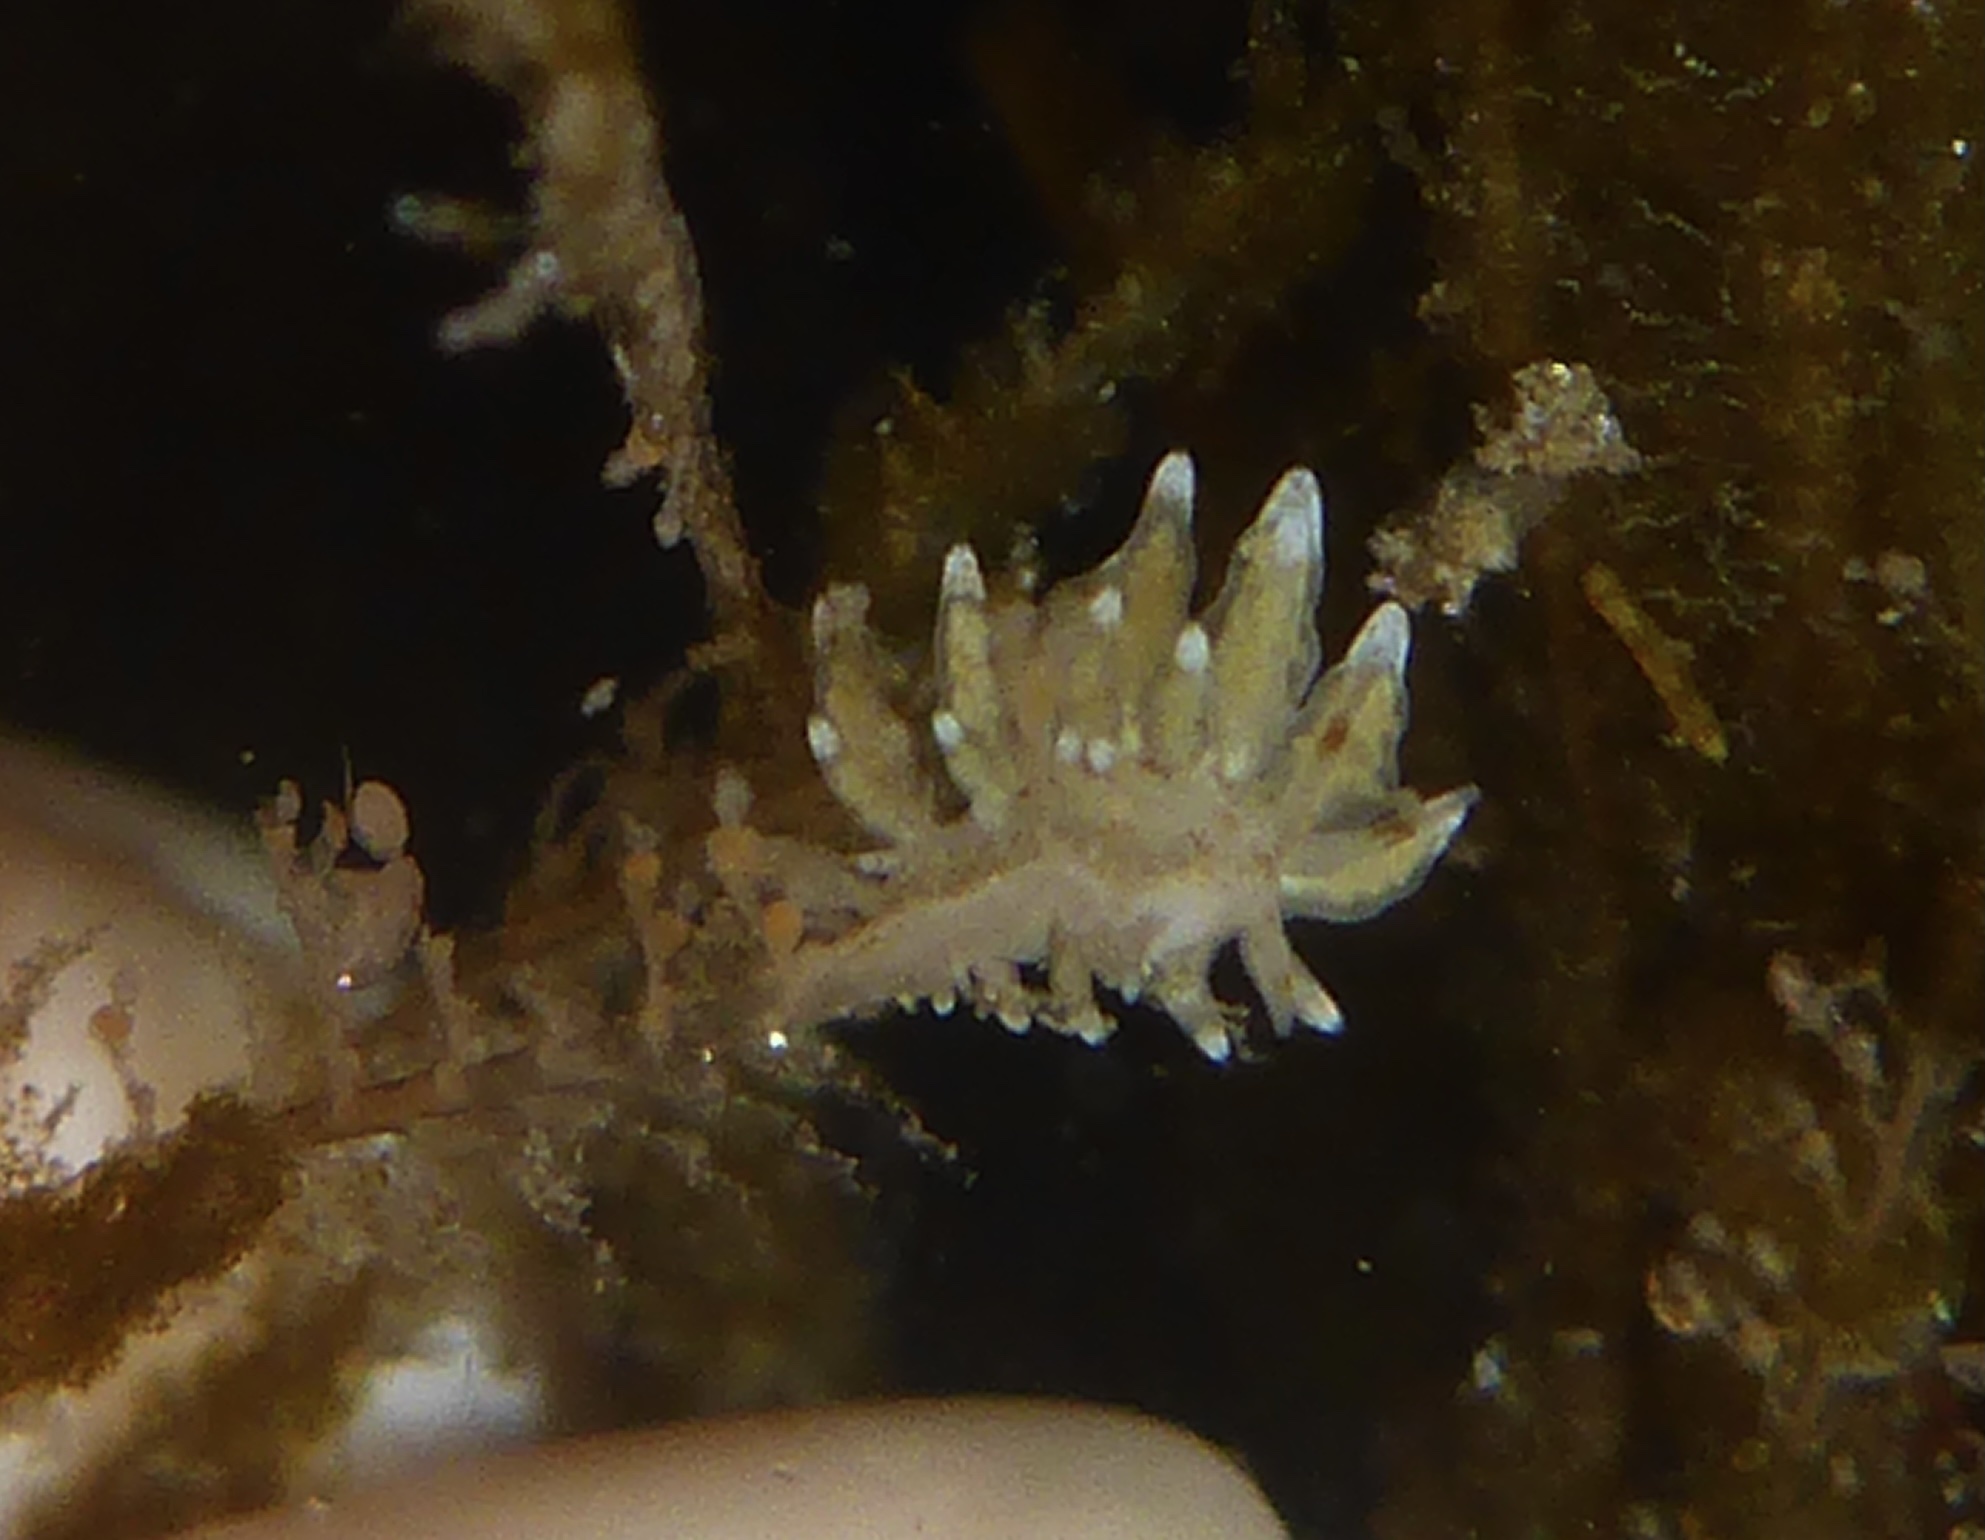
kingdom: Animalia
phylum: Mollusca
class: Gastropoda
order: Nudibranchia
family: Eubranchidae
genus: Eubranchus
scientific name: Eubranchus rustyus
